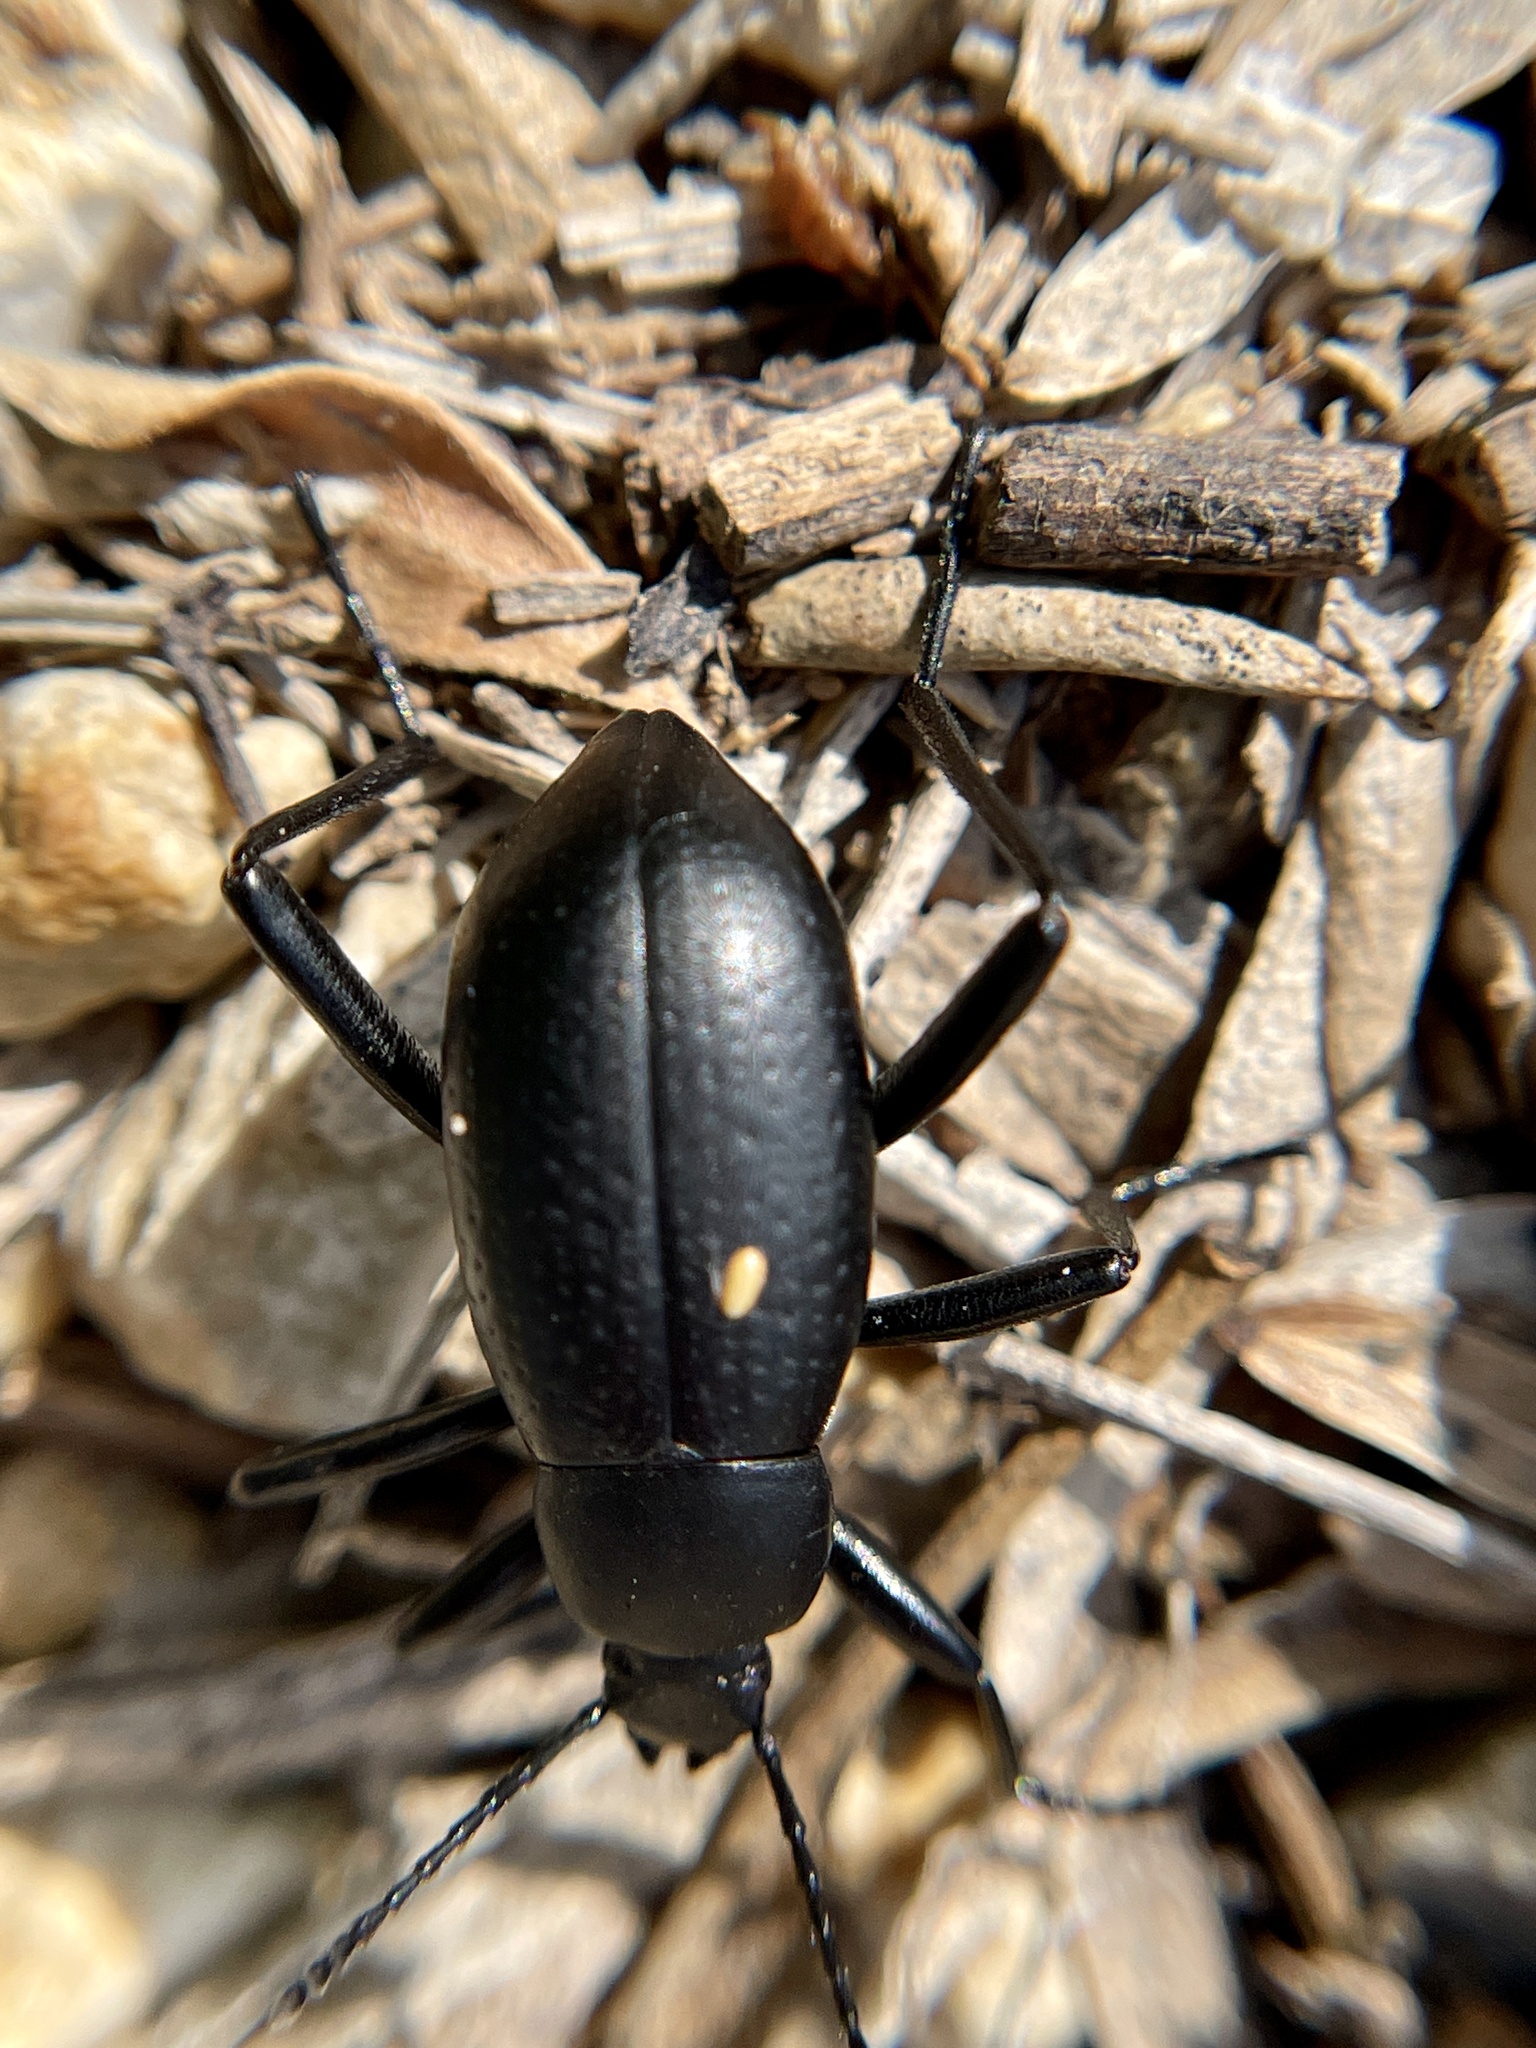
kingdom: Animalia
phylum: Arthropoda
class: Insecta
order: Coleoptera
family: Tenebrionidae
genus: Eleodes
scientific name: Eleodes goryi
